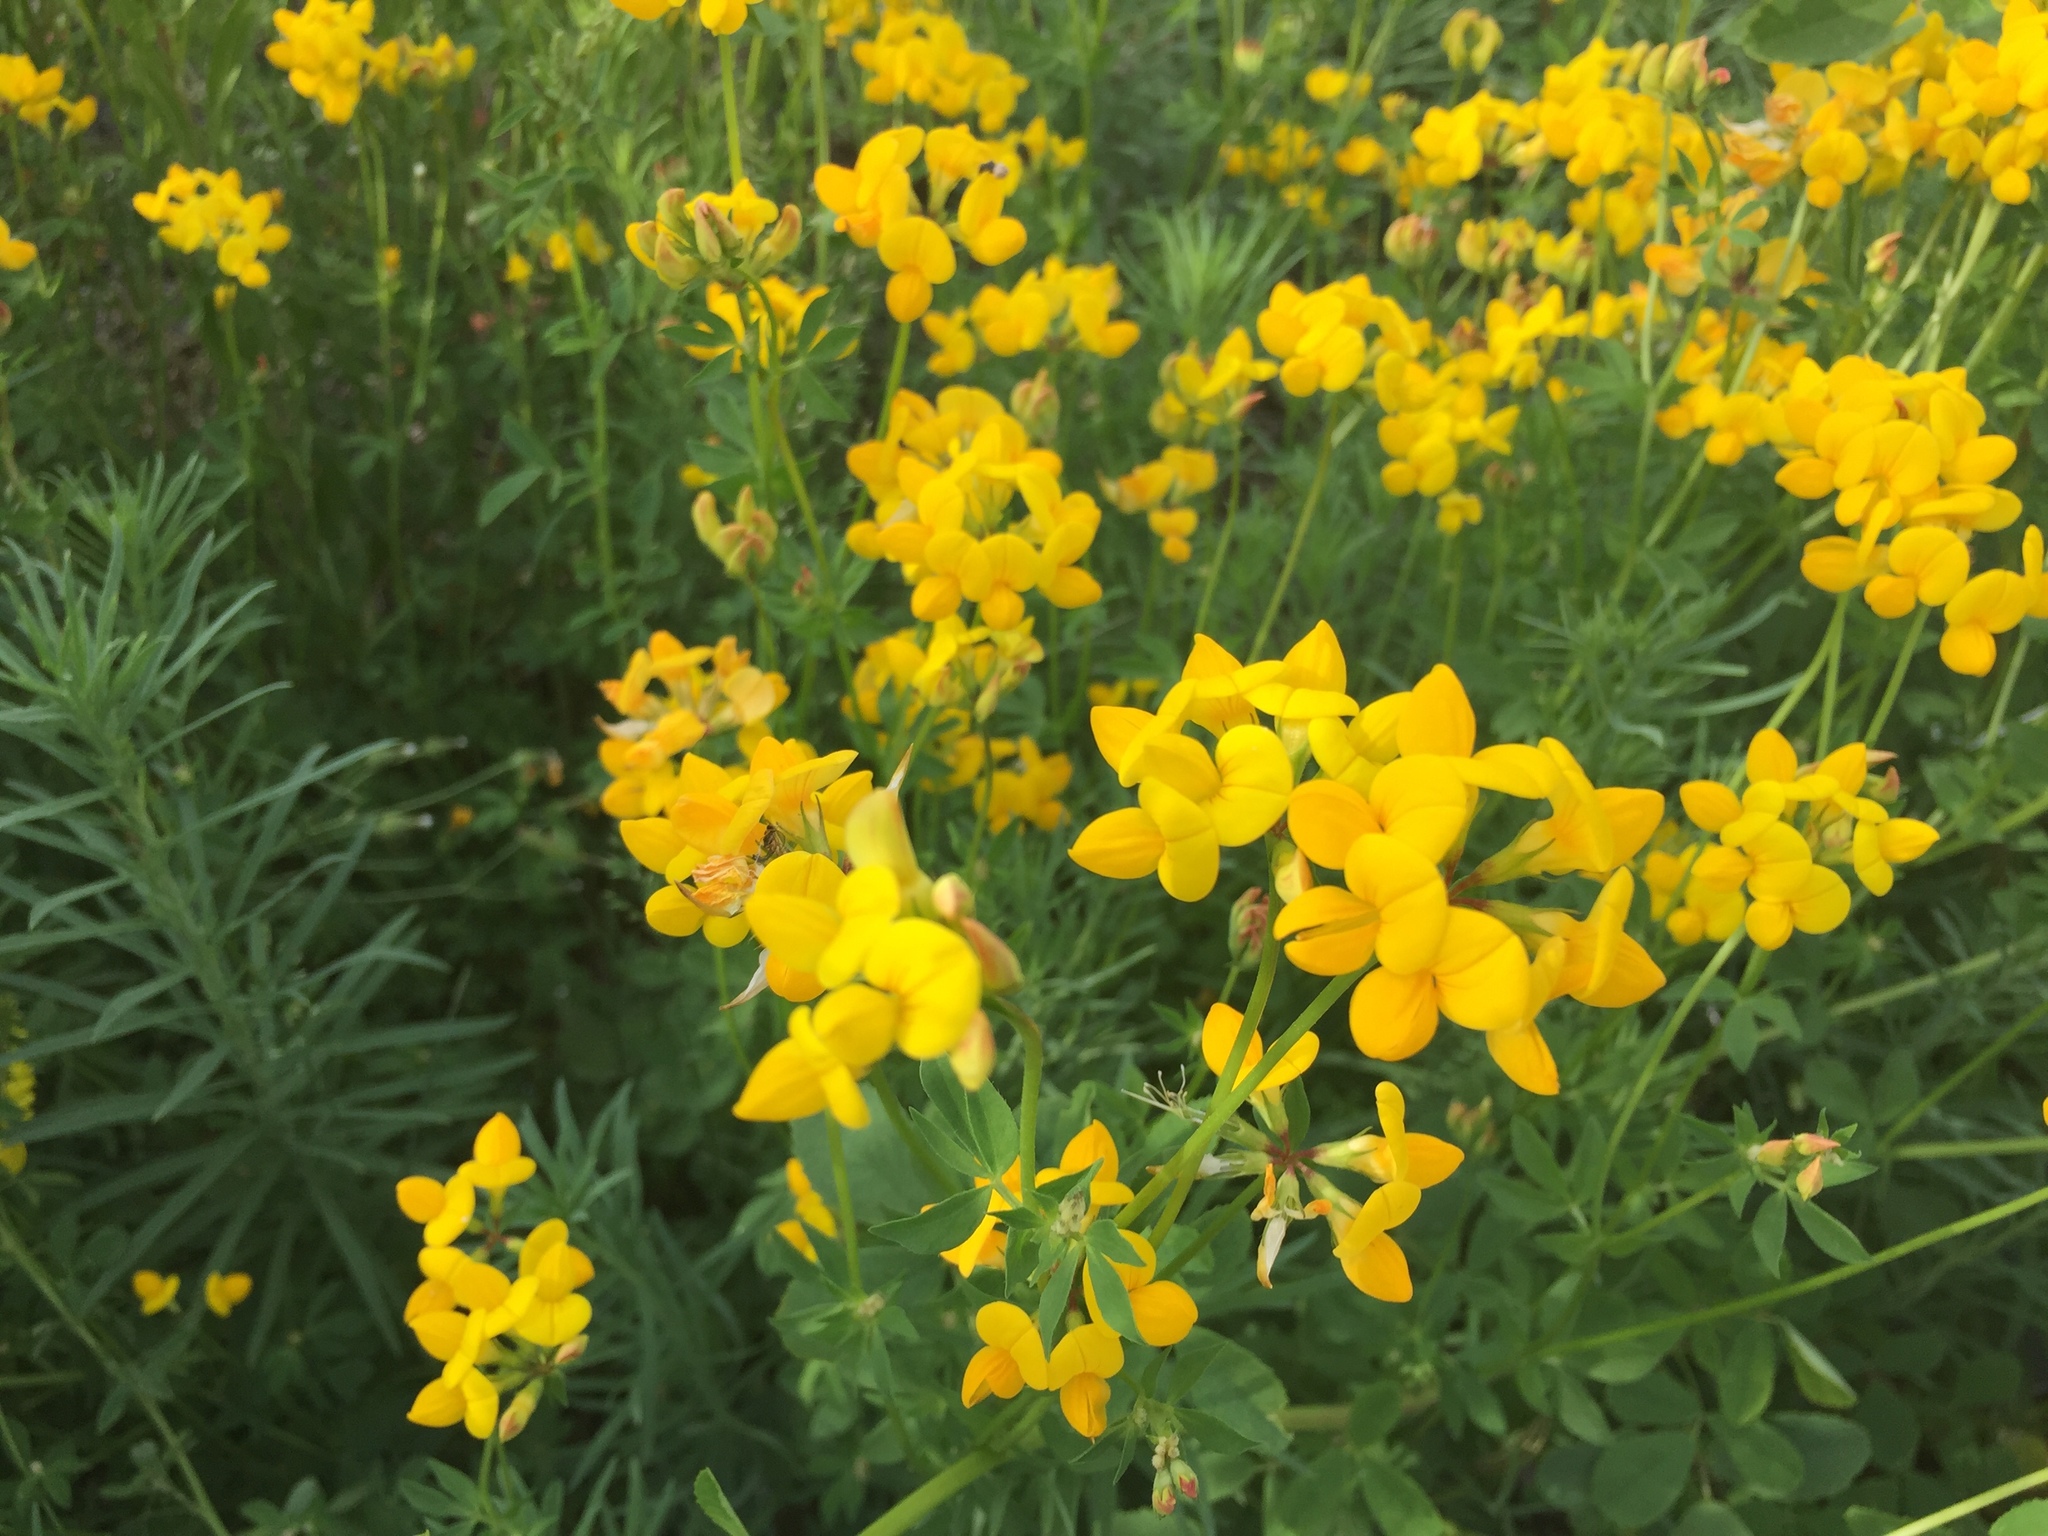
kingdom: Plantae
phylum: Tracheophyta
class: Magnoliopsida
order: Fabales
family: Fabaceae
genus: Lotus
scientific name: Lotus corniculatus
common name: Common bird's-foot-trefoil
